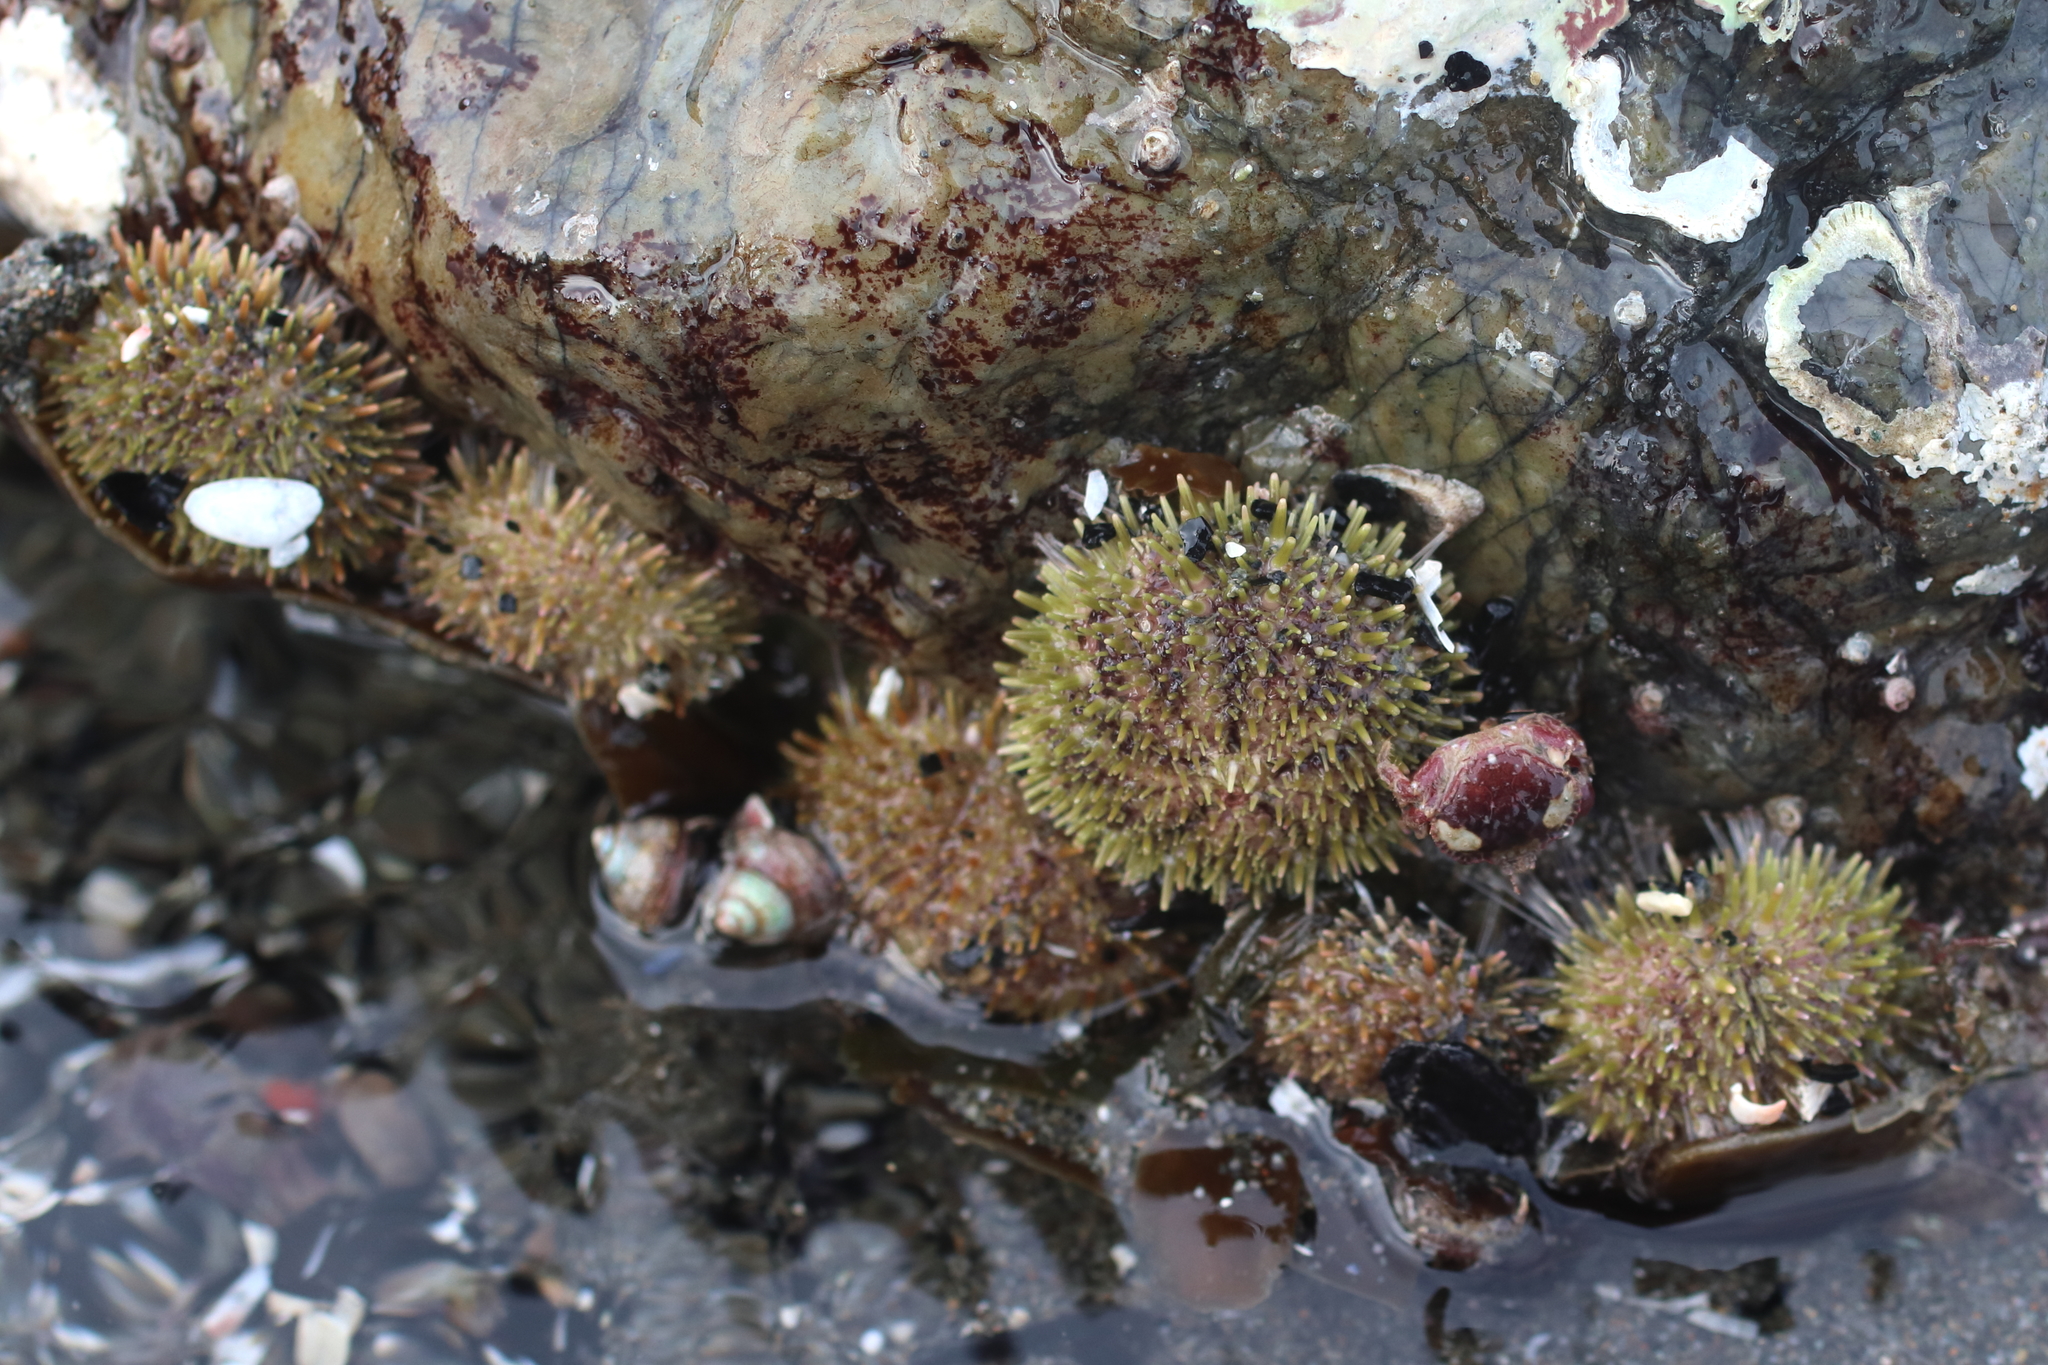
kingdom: Animalia
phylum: Echinodermata
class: Echinoidea
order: Camarodonta
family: Strongylocentrotidae
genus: Strongylocentrotus
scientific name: Strongylocentrotus droebachiensis
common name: Northern sea urchin
